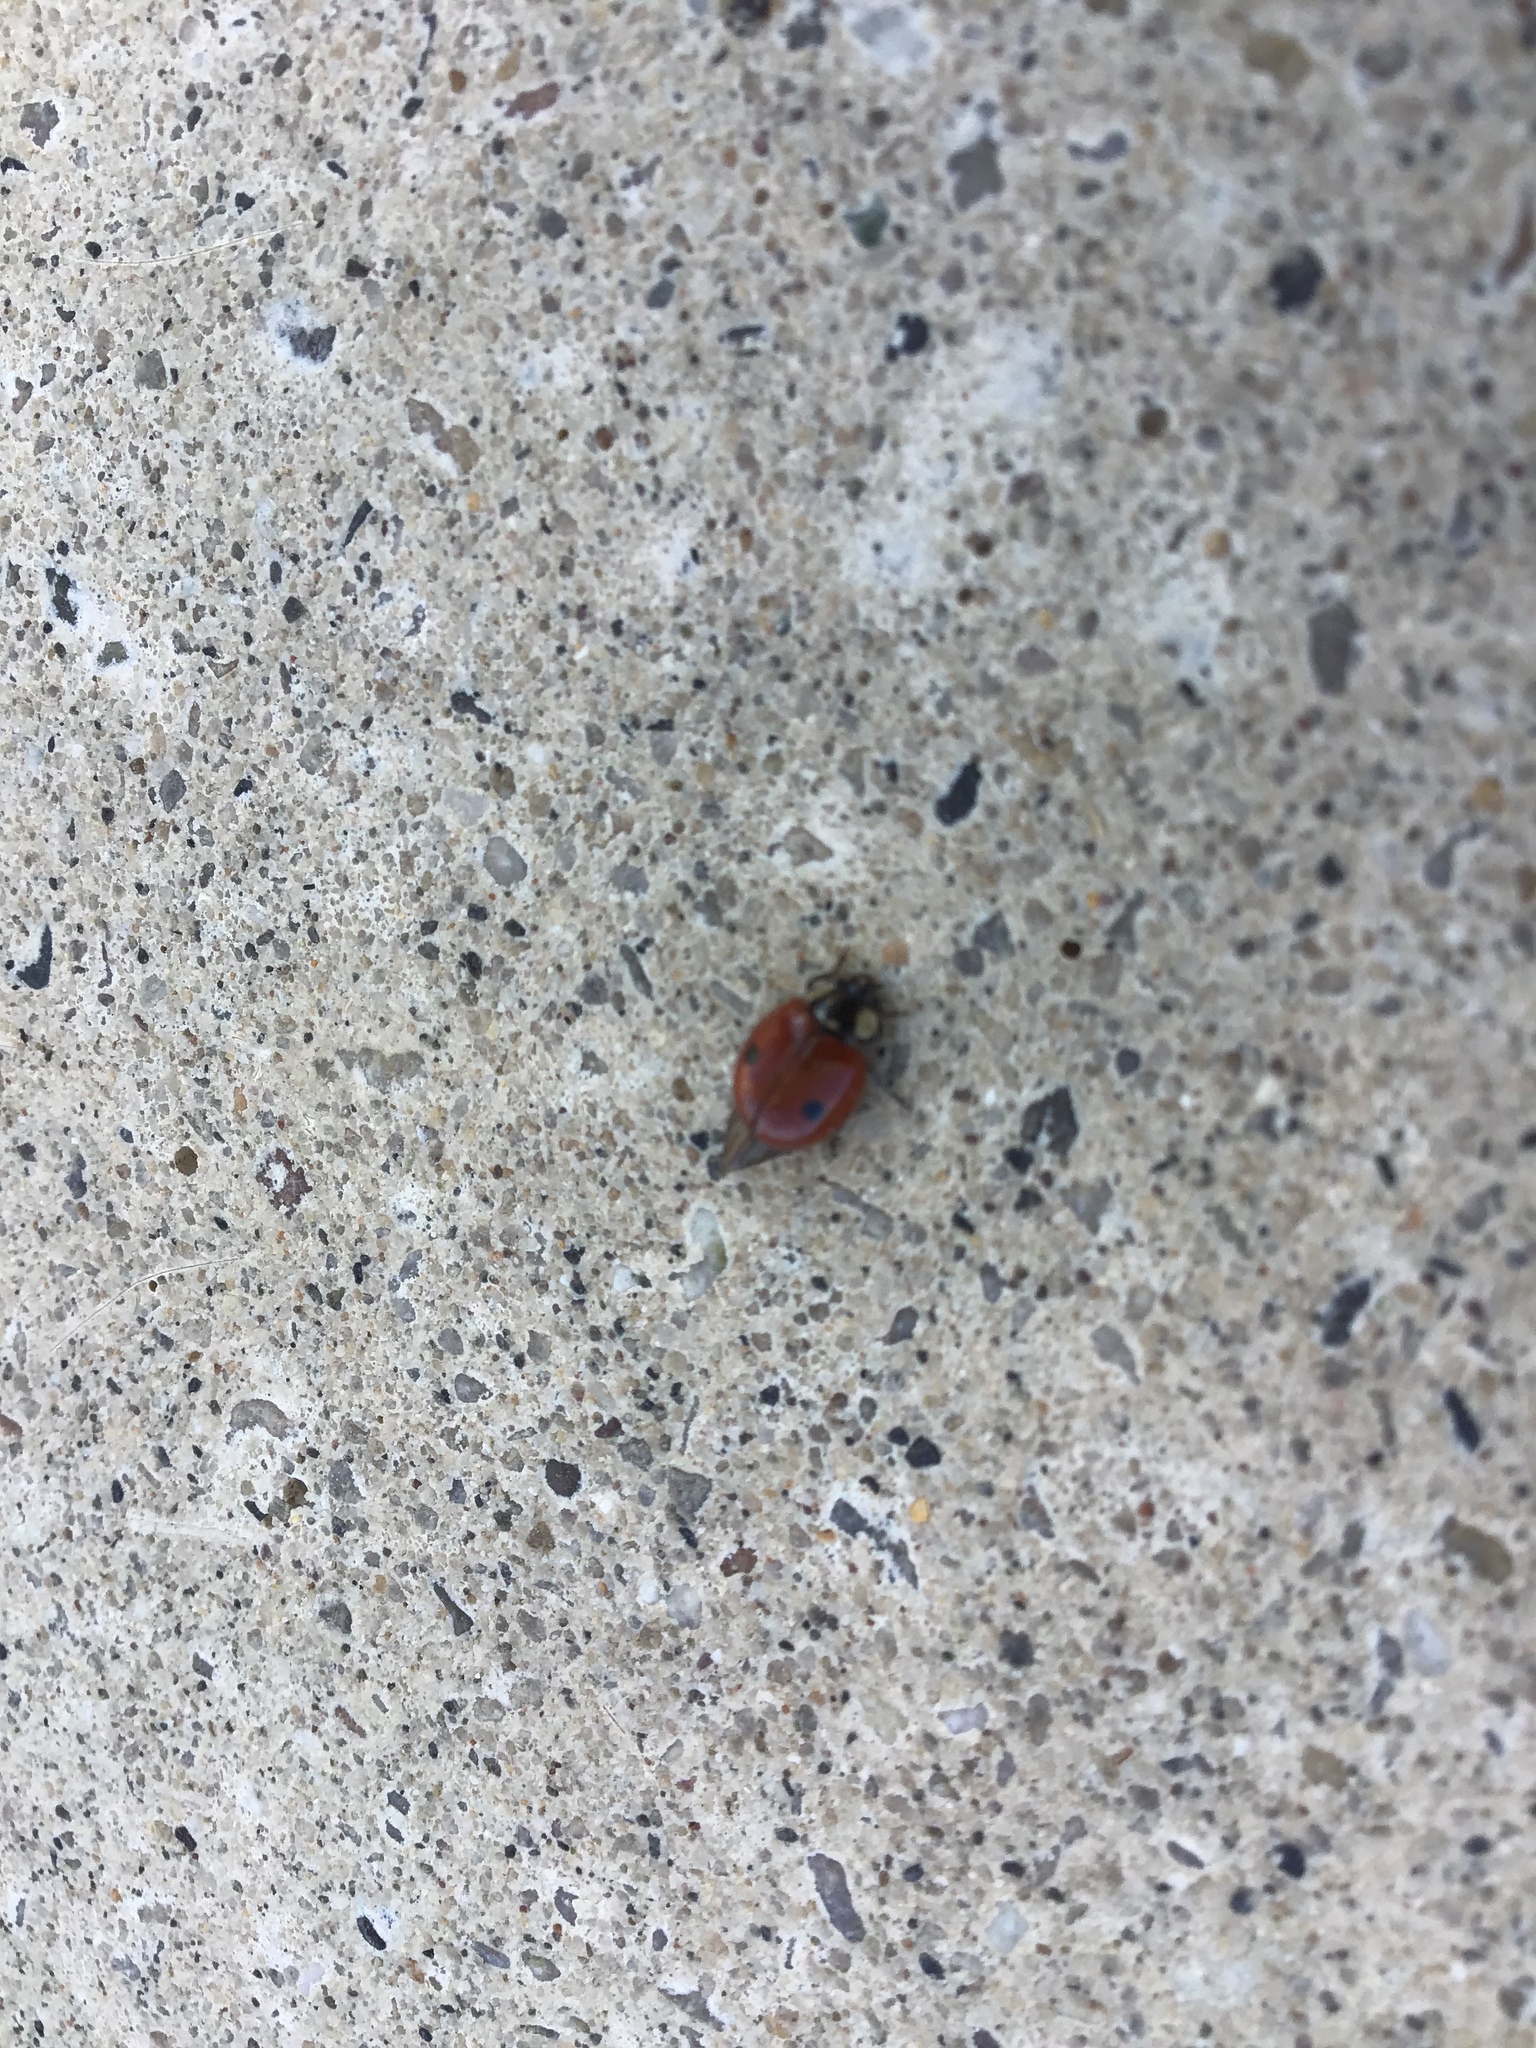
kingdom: Animalia
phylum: Arthropoda
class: Insecta
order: Coleoptera
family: Coccinellidae
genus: Adalia
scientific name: Adalia bipunctata
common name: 2-spot ladybird
